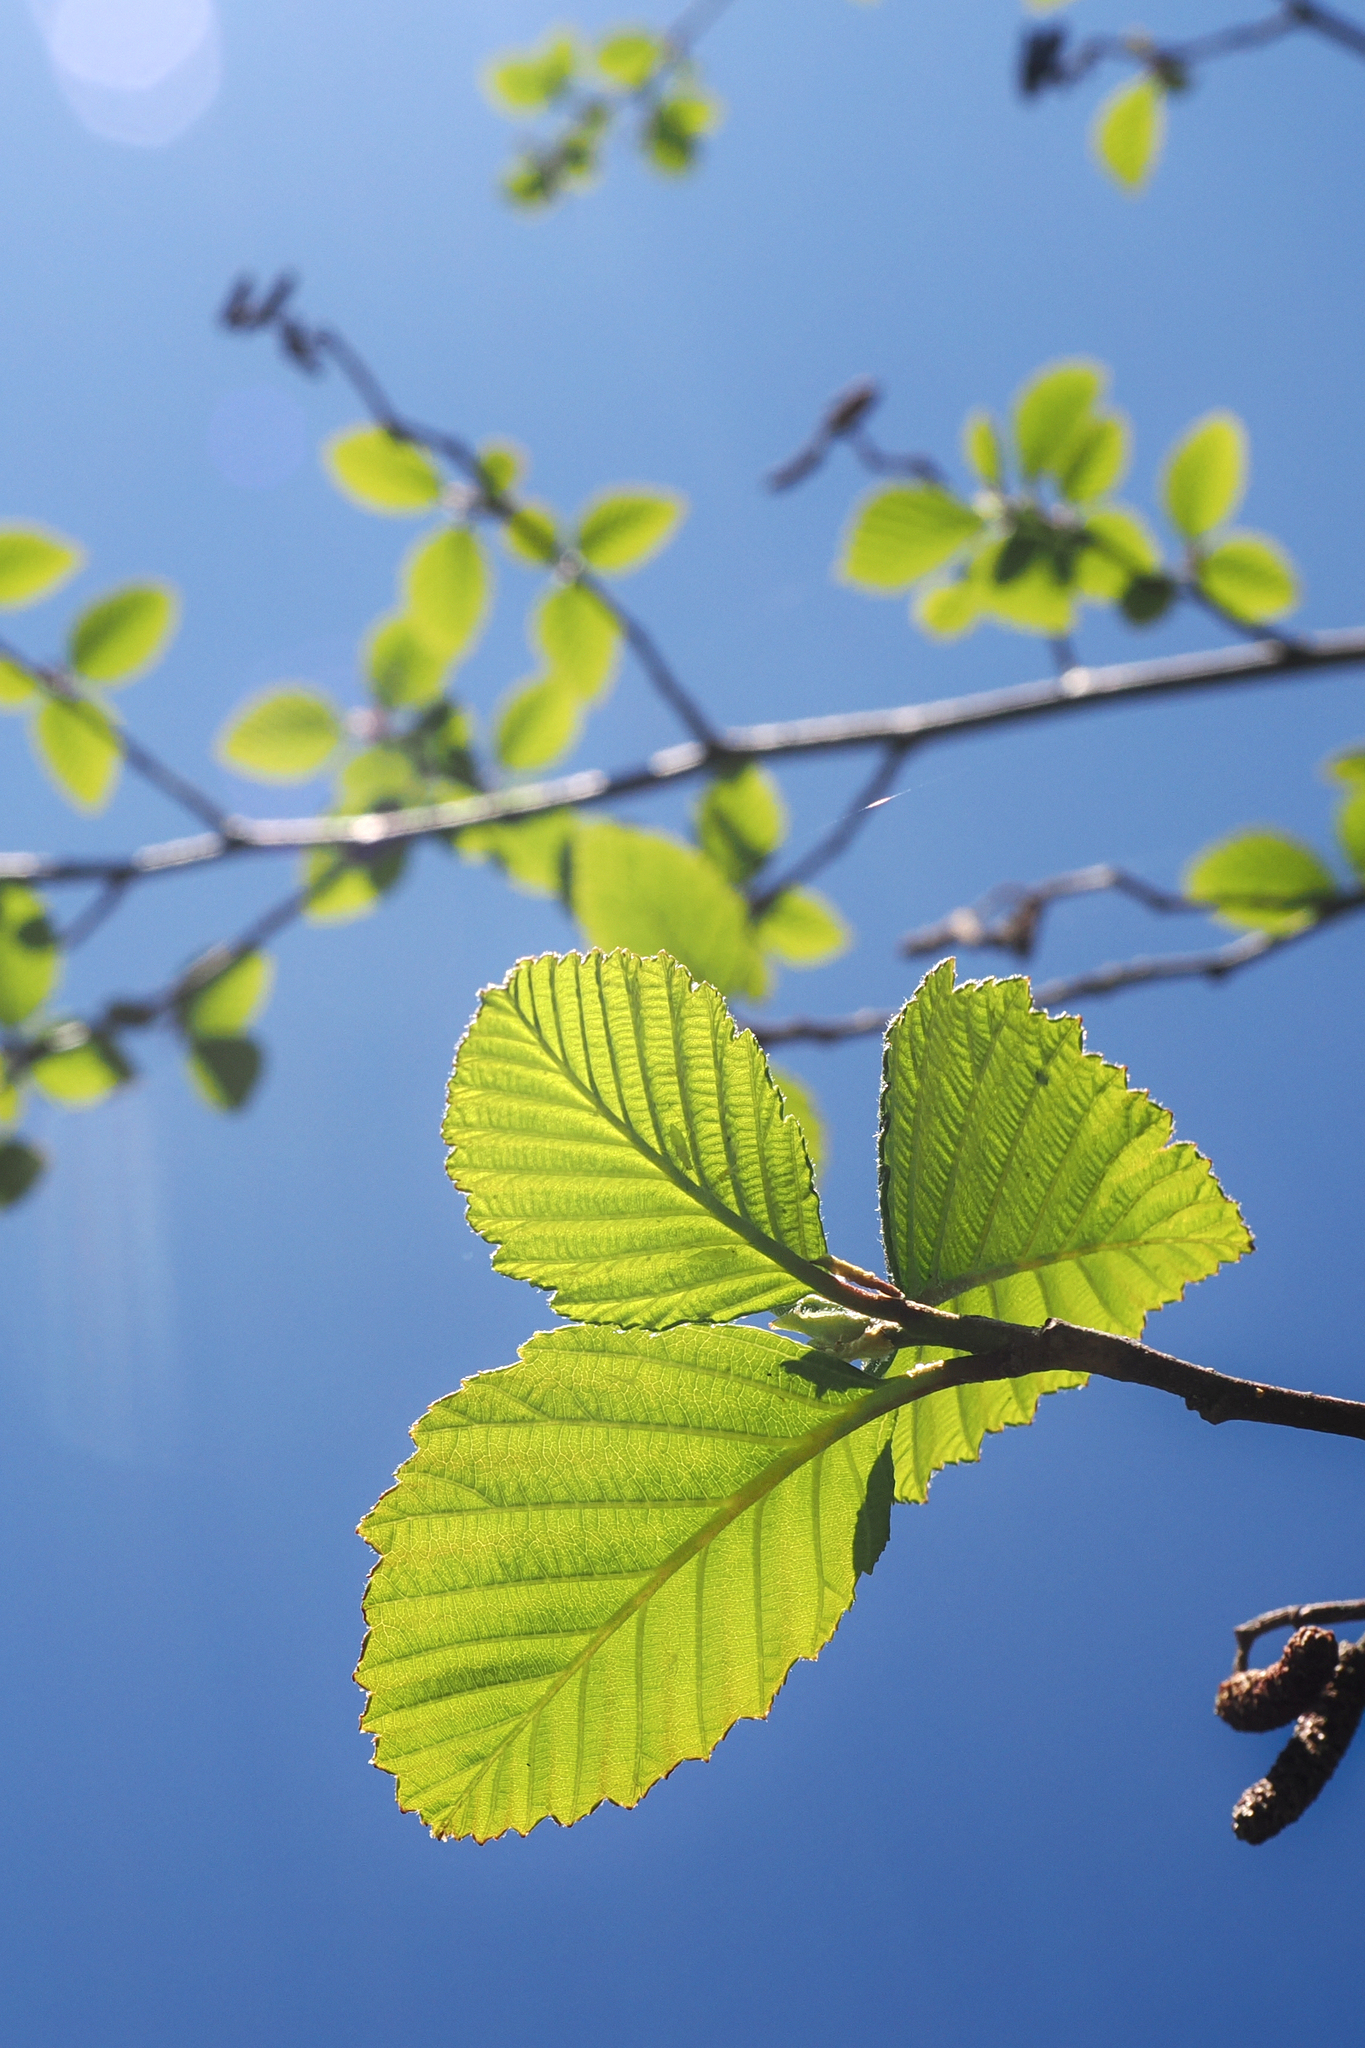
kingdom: Plantae
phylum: Tracheophyta
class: Magnoliopsida
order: Fagales
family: Betulaceae
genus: Alnus
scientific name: Alnus rubra
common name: Red alder
